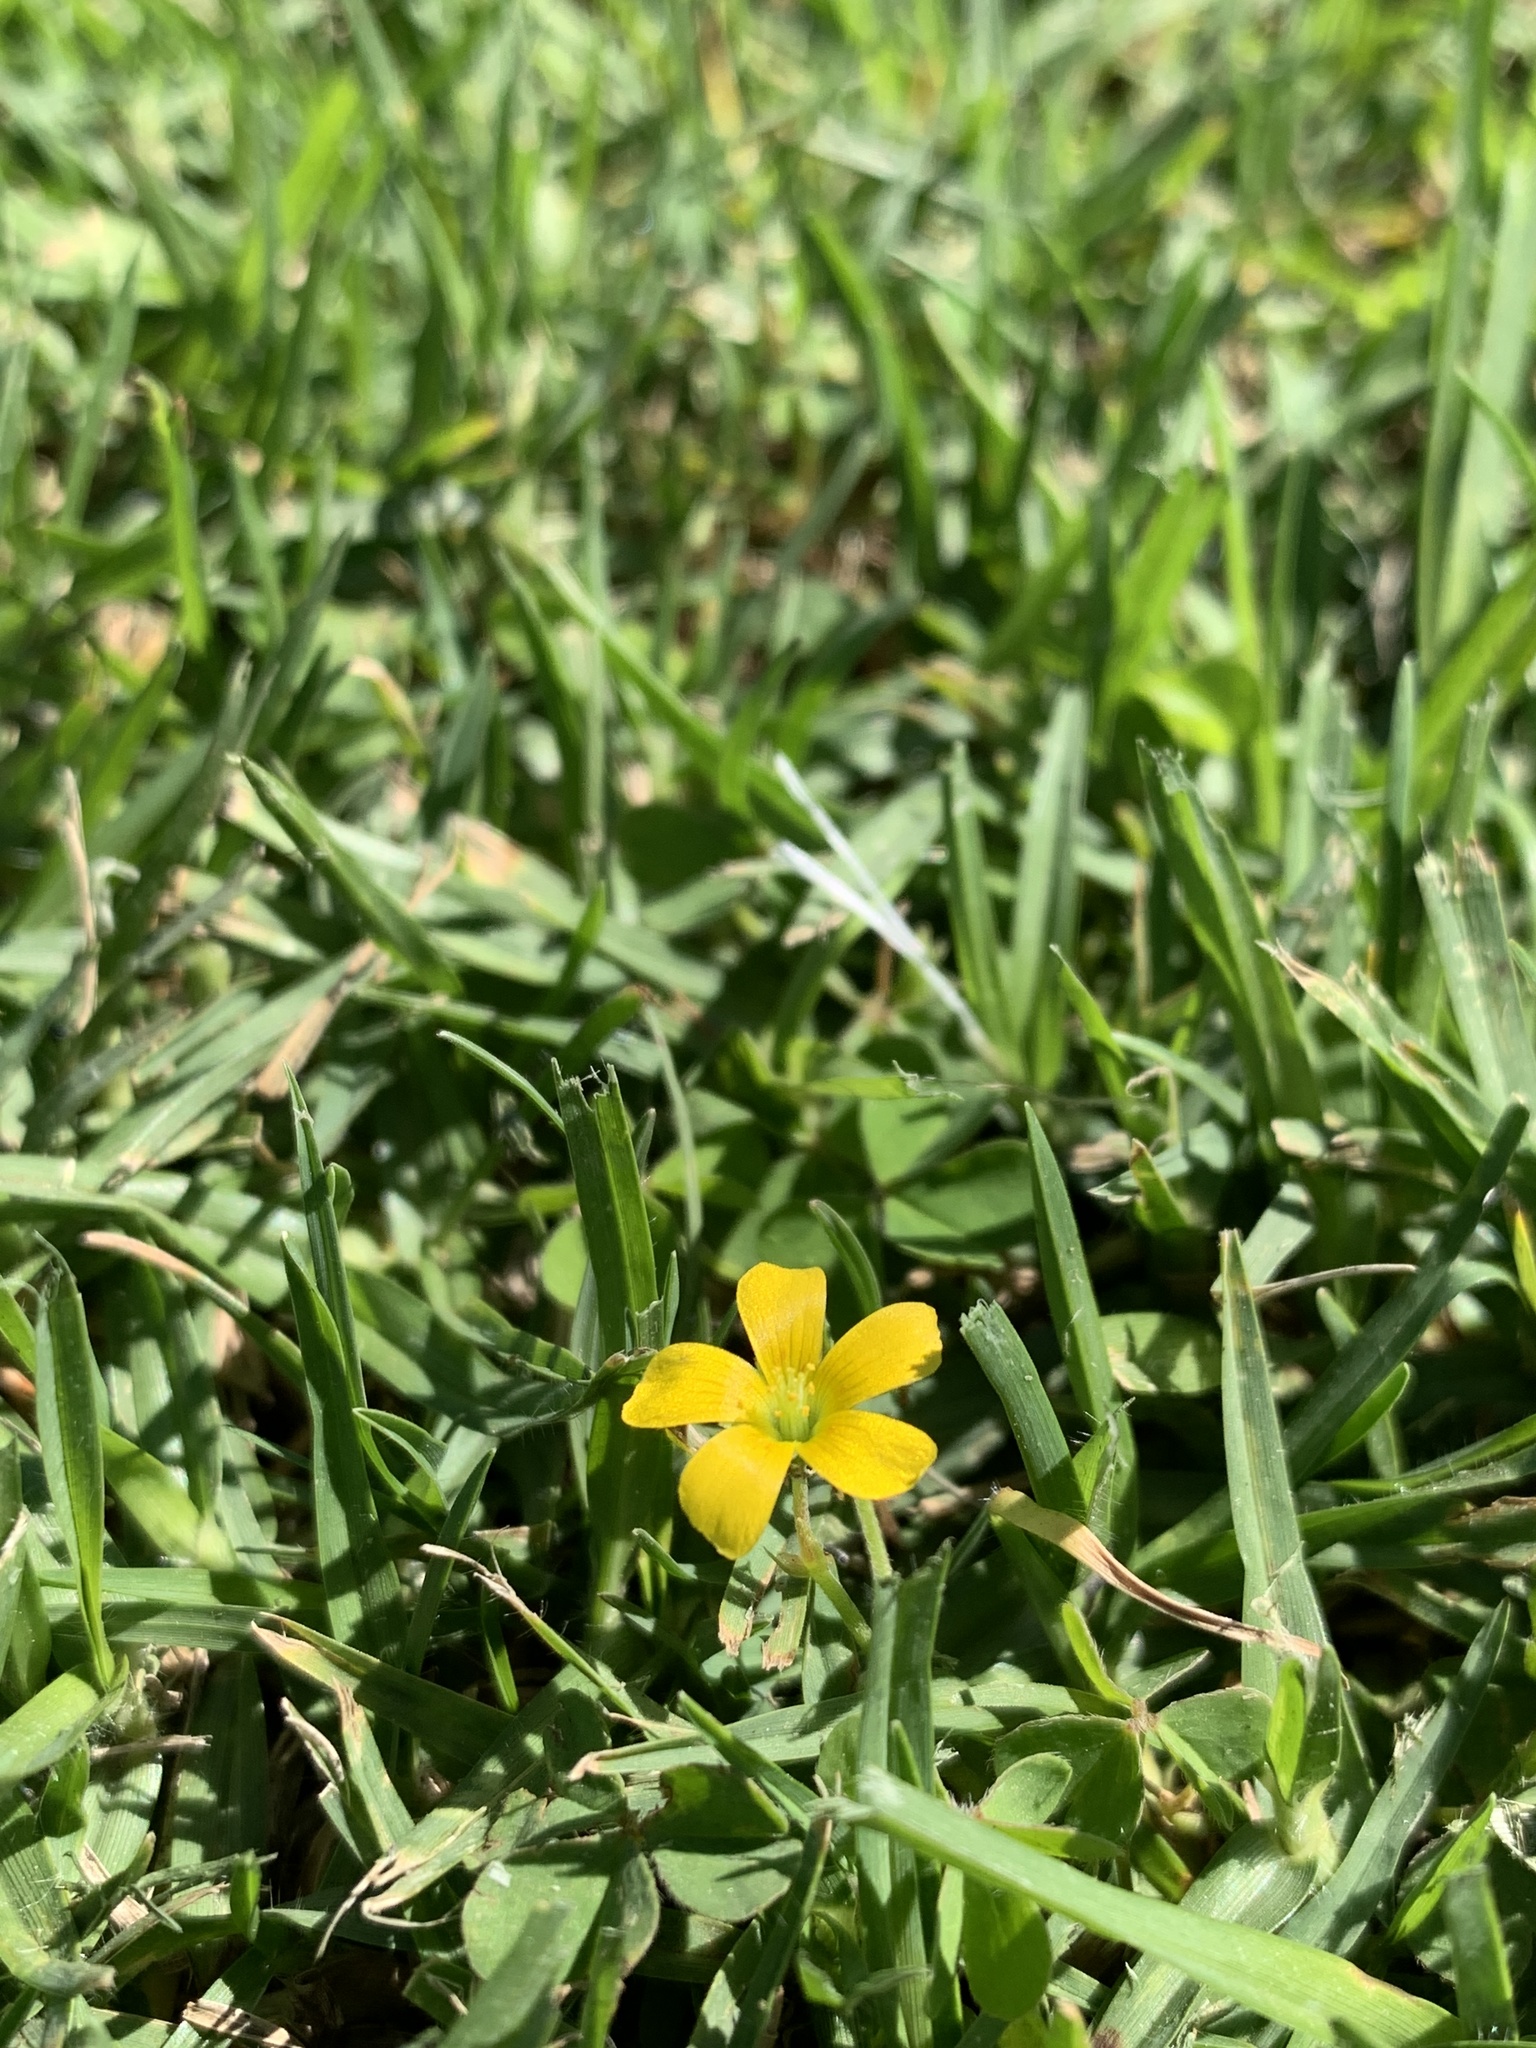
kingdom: Plantae
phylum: Tracheophyta
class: Magnoliopsida
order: Oxalidales
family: Oxalidaceae
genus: Oxalis
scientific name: Oxalis corniculata
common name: Procumbent yellow-sorrel
